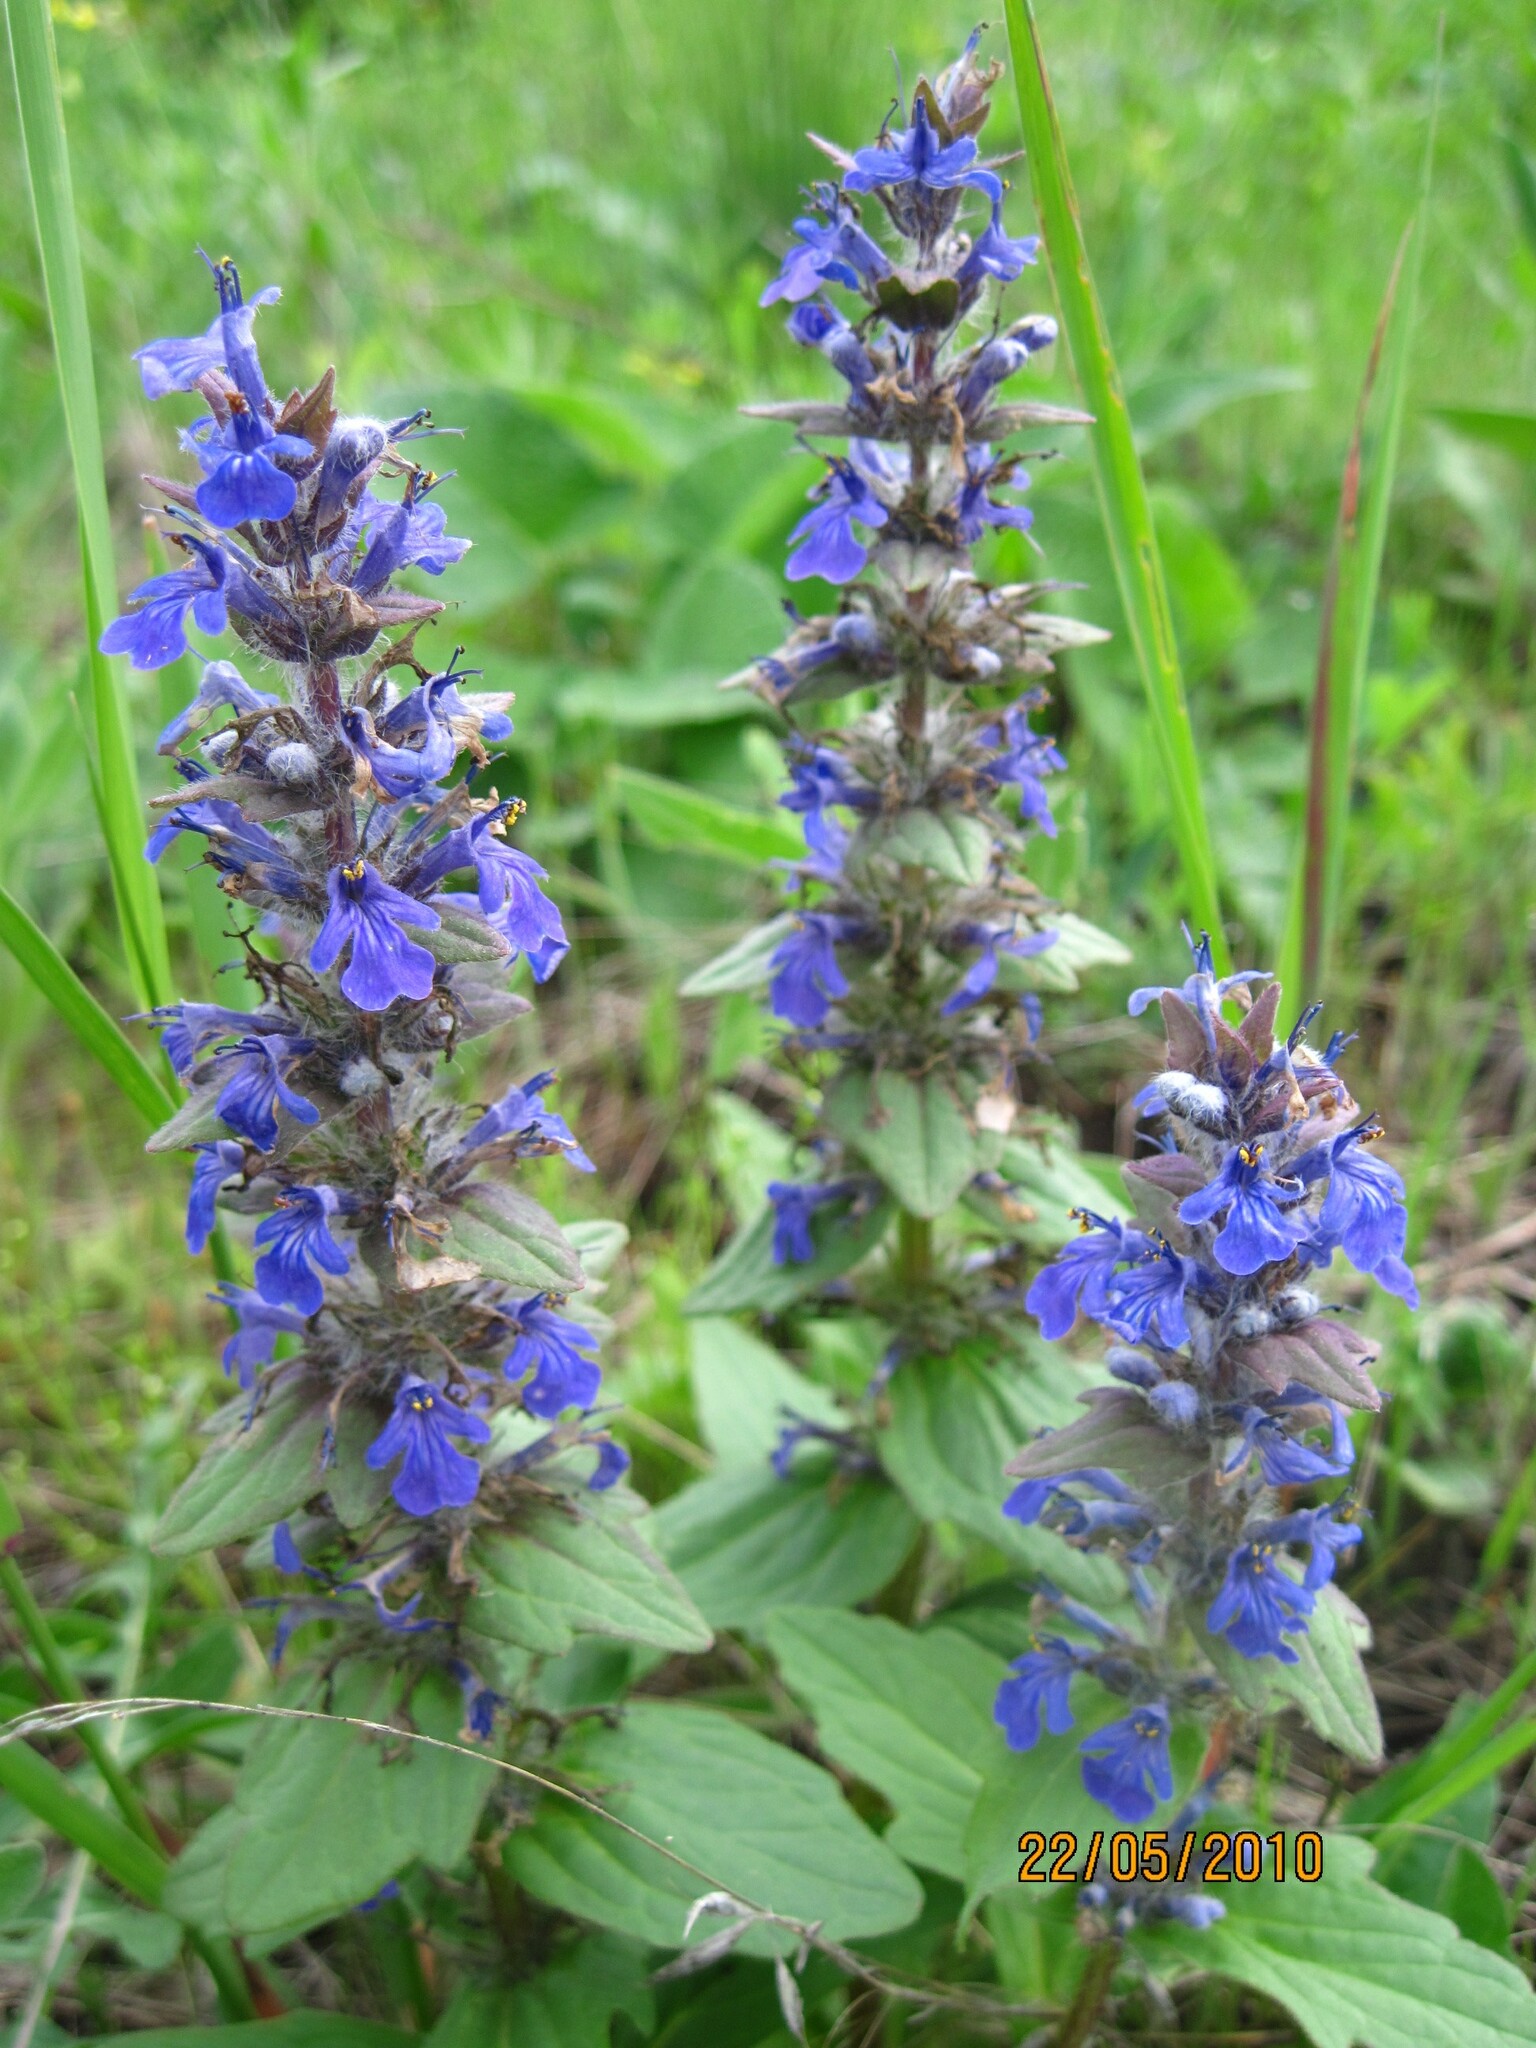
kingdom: Plantae
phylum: Tracheophyta
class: Magnoliopsida
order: Lamiales
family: Lamiaceae
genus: Ajuga
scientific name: Ajuga genevensis
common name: Blue bugle
